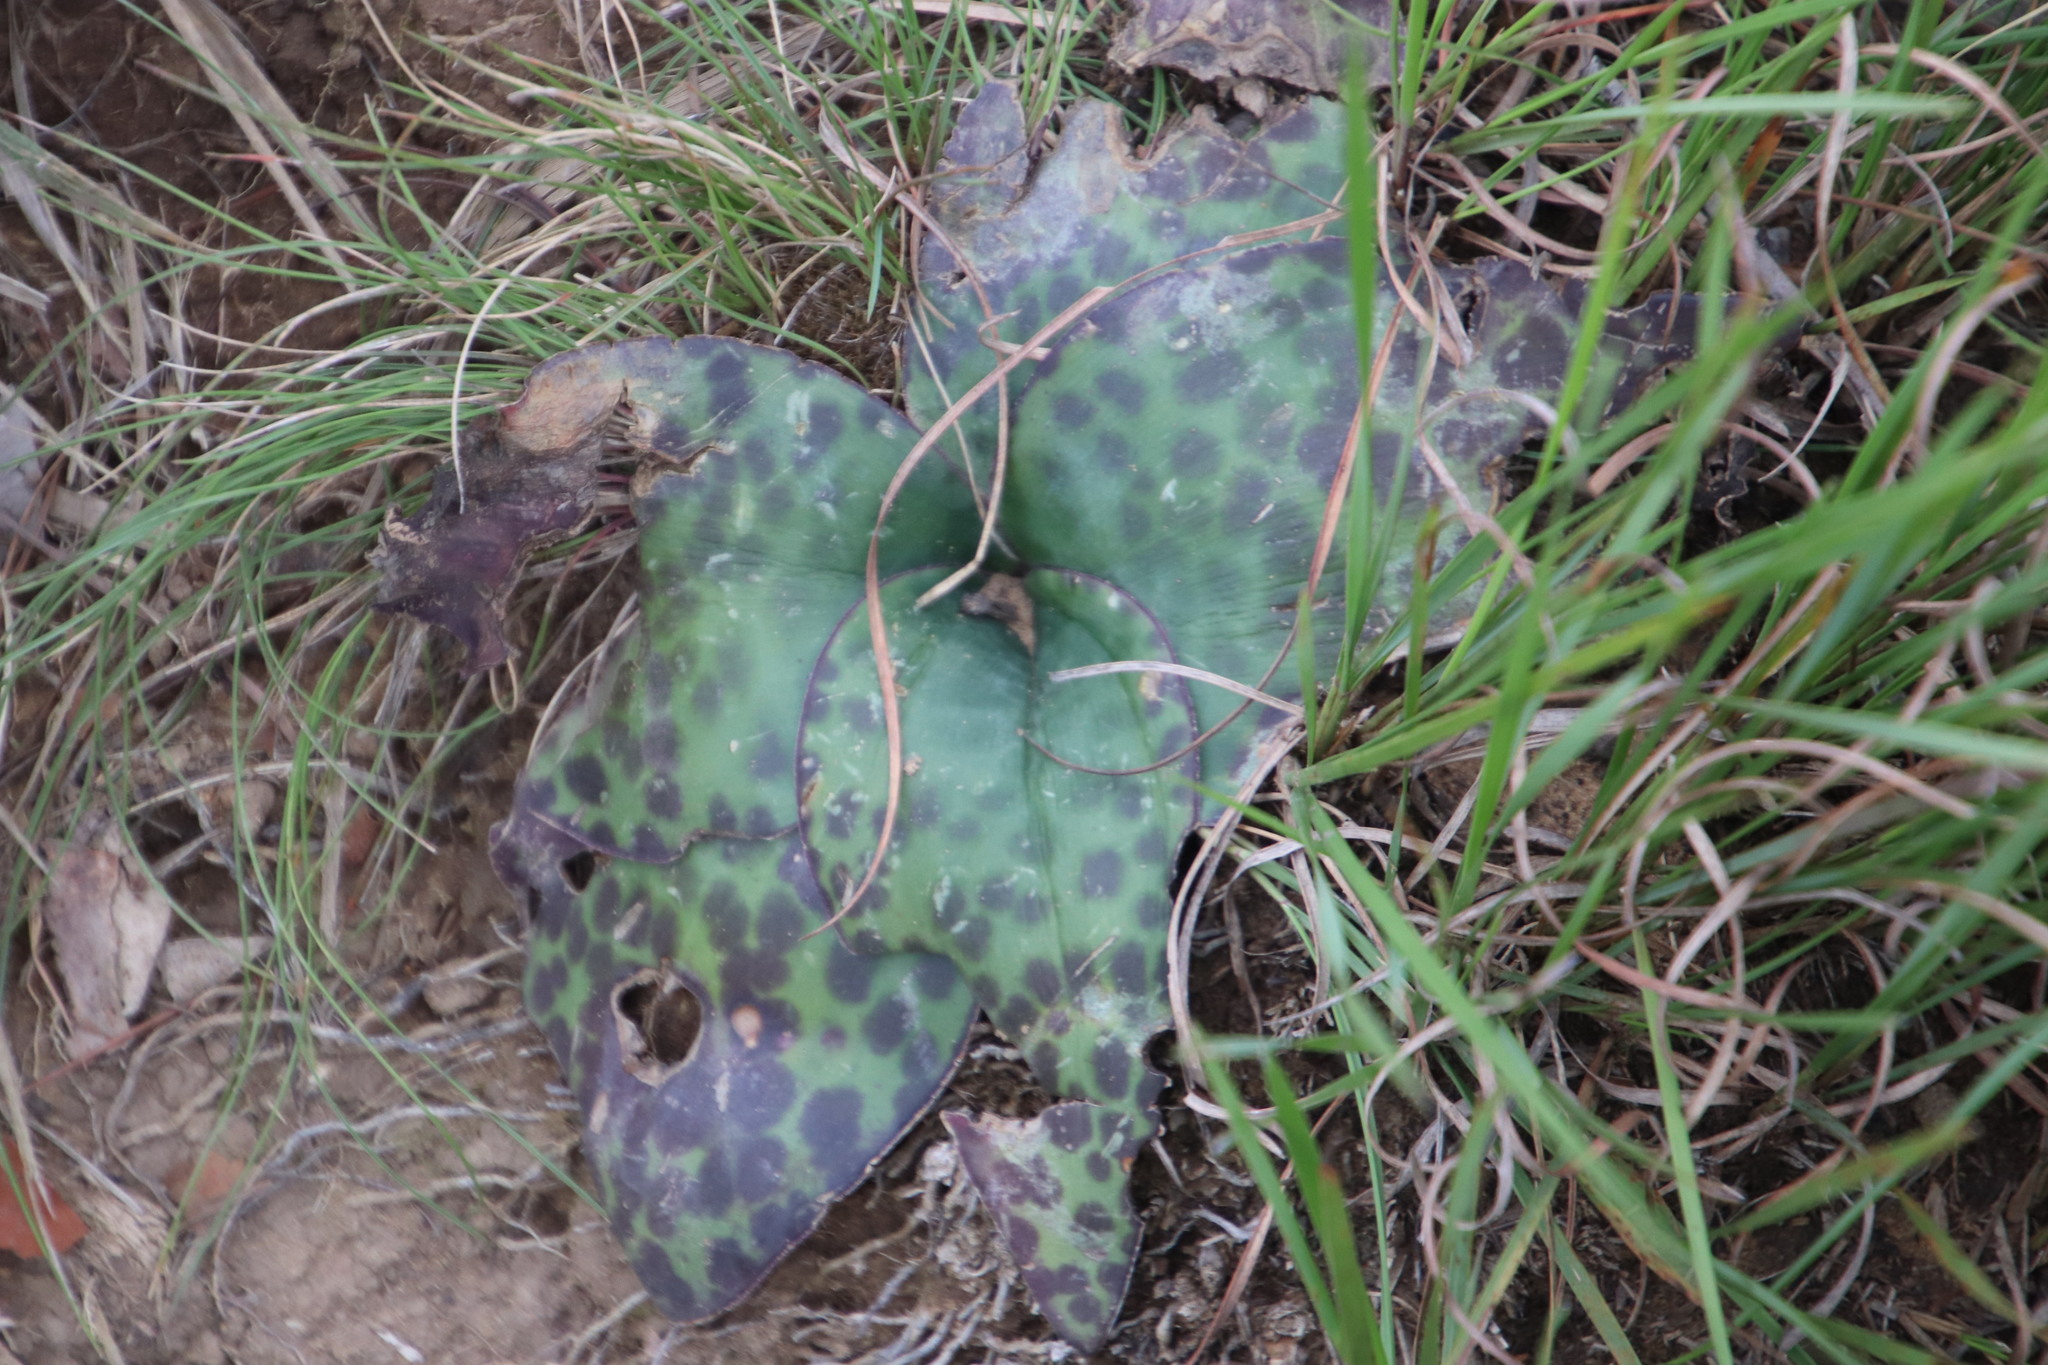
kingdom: Plantae
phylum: Tracheophyta
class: Liliopsida
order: Asparagales
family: Asparagaceae
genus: Ledebouria
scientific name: Ledebouria ovatifolia
